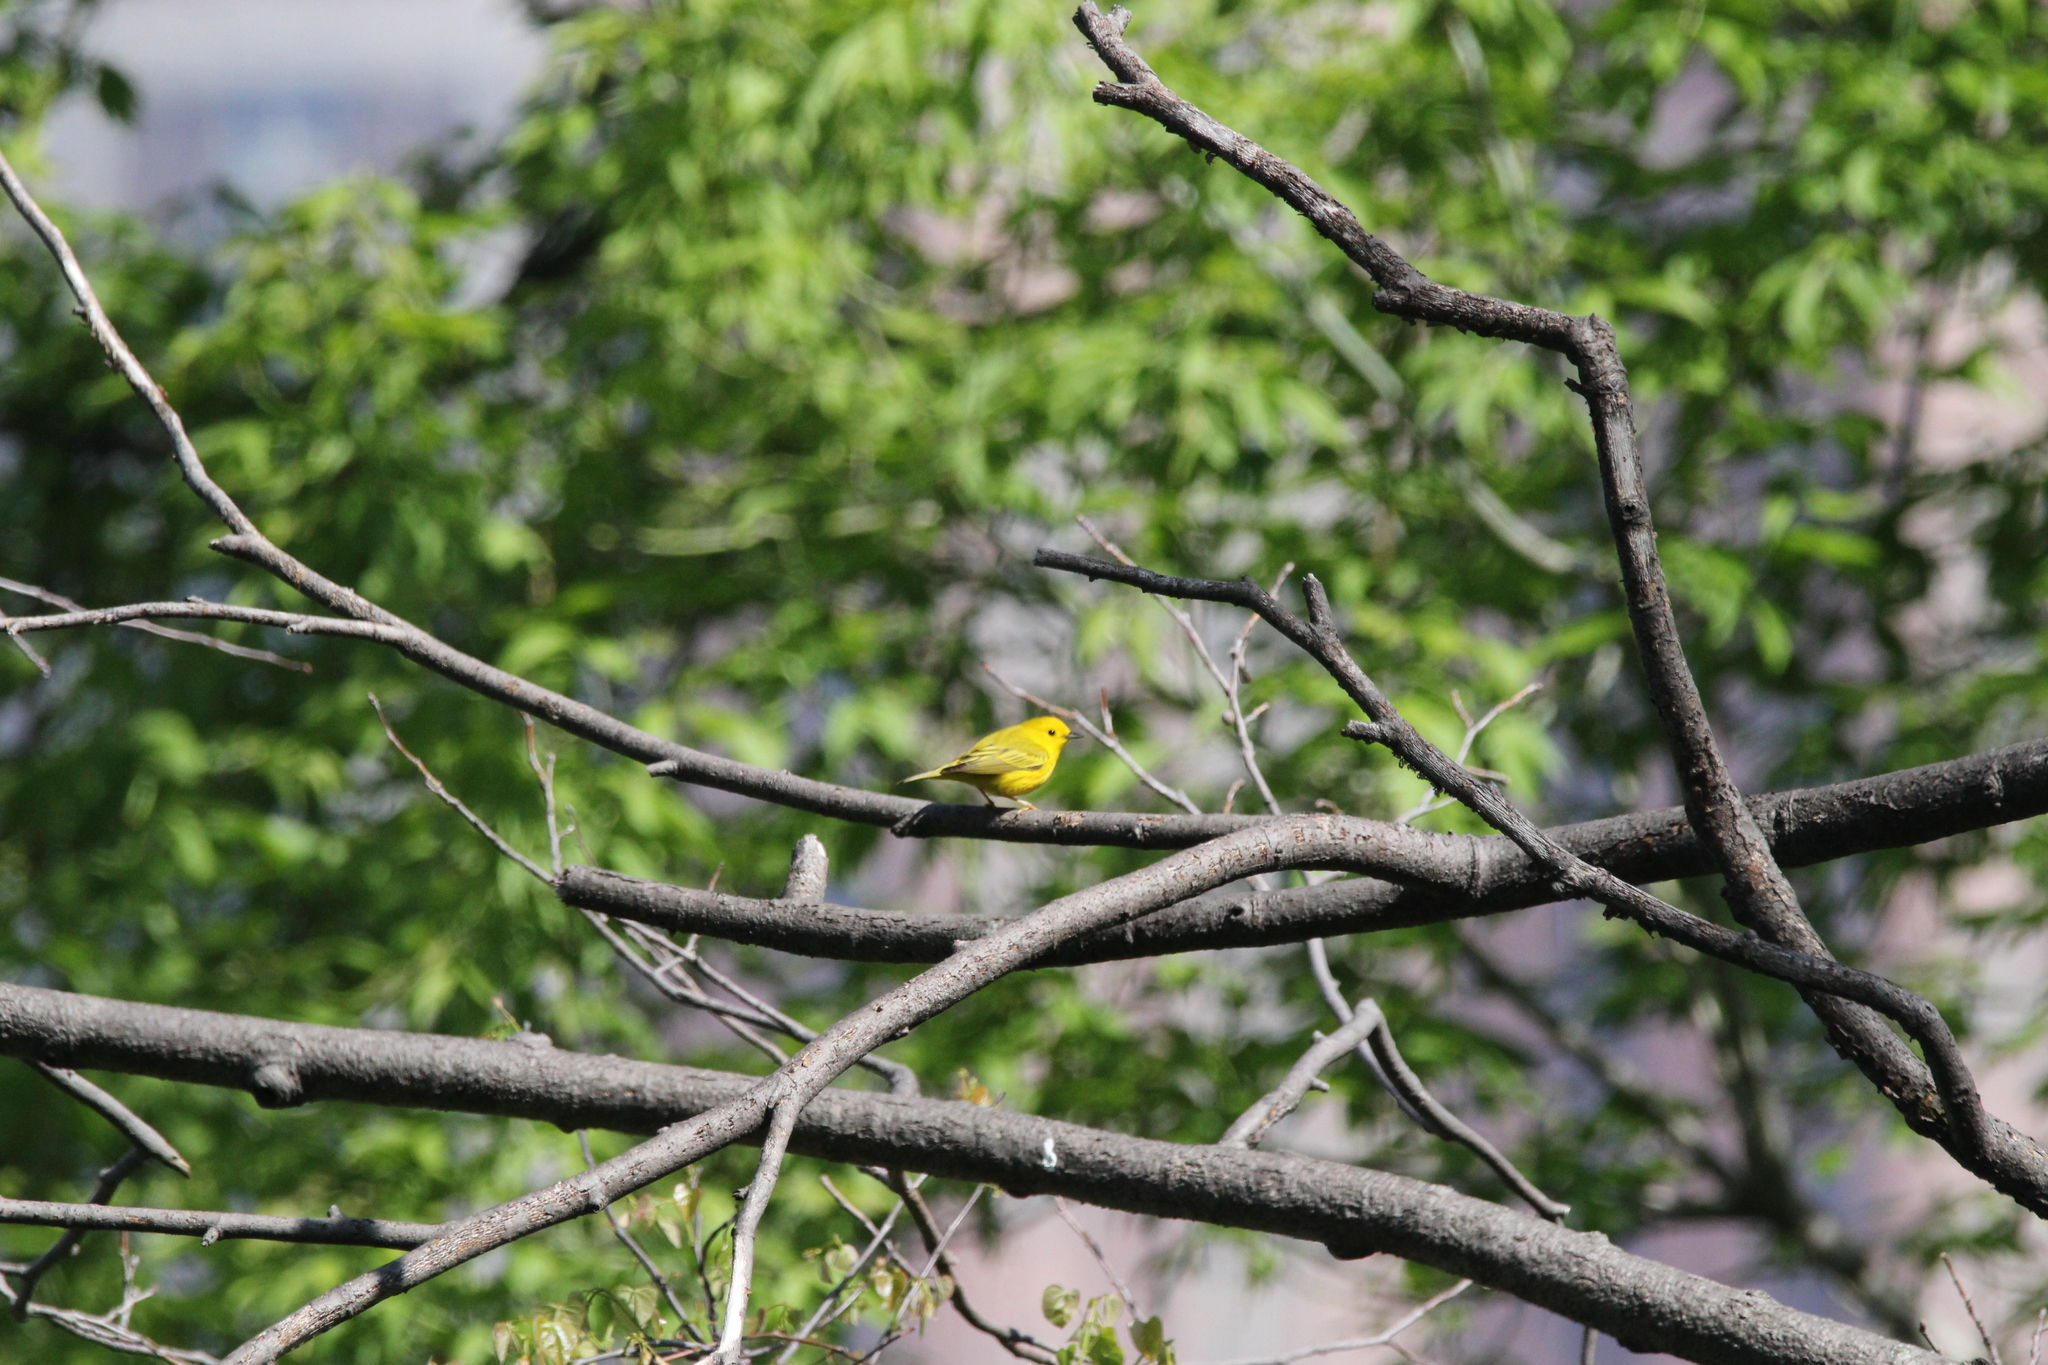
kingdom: Animalia
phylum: Chordata
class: Aves
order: Passeriformes
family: Parulidae
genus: Setophaga
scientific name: Setophaga petechia
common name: Yellow warbler
